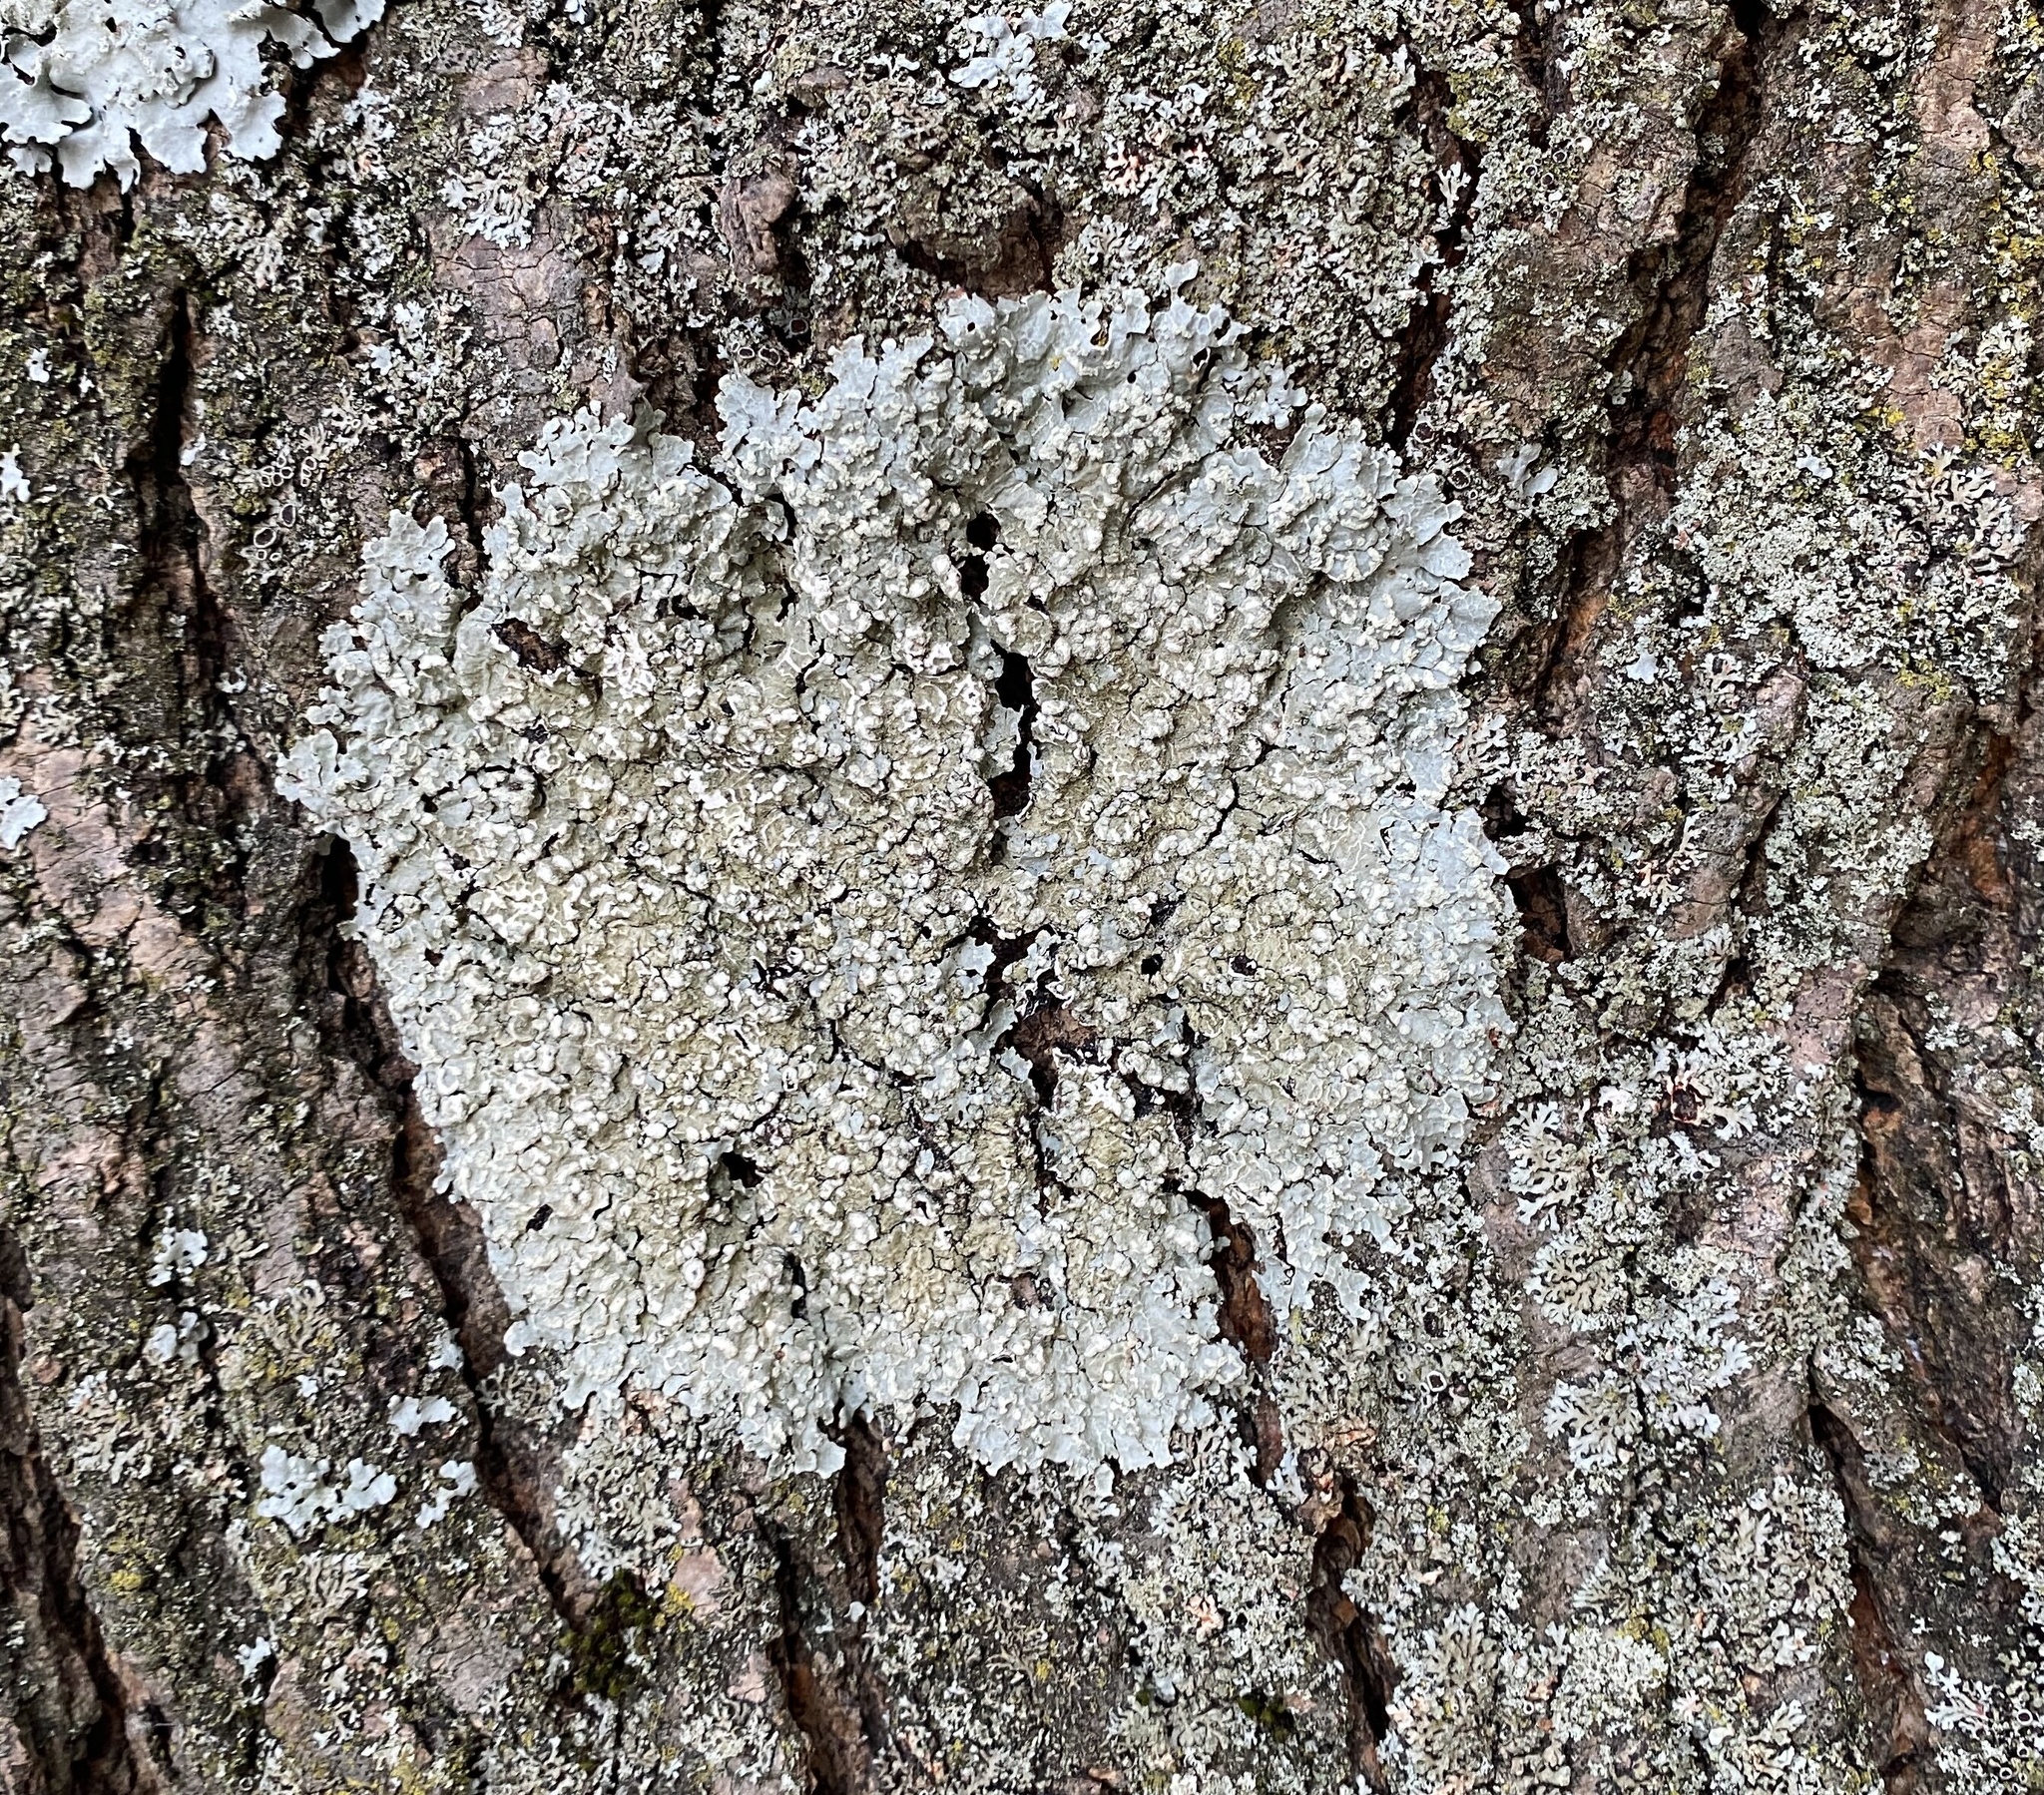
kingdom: Fungi
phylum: Ascomycota
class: Lecanoromycetes
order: Lecanorales
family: Parmeliaceae
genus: Crespoa
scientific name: Crespoa crozalsiana
